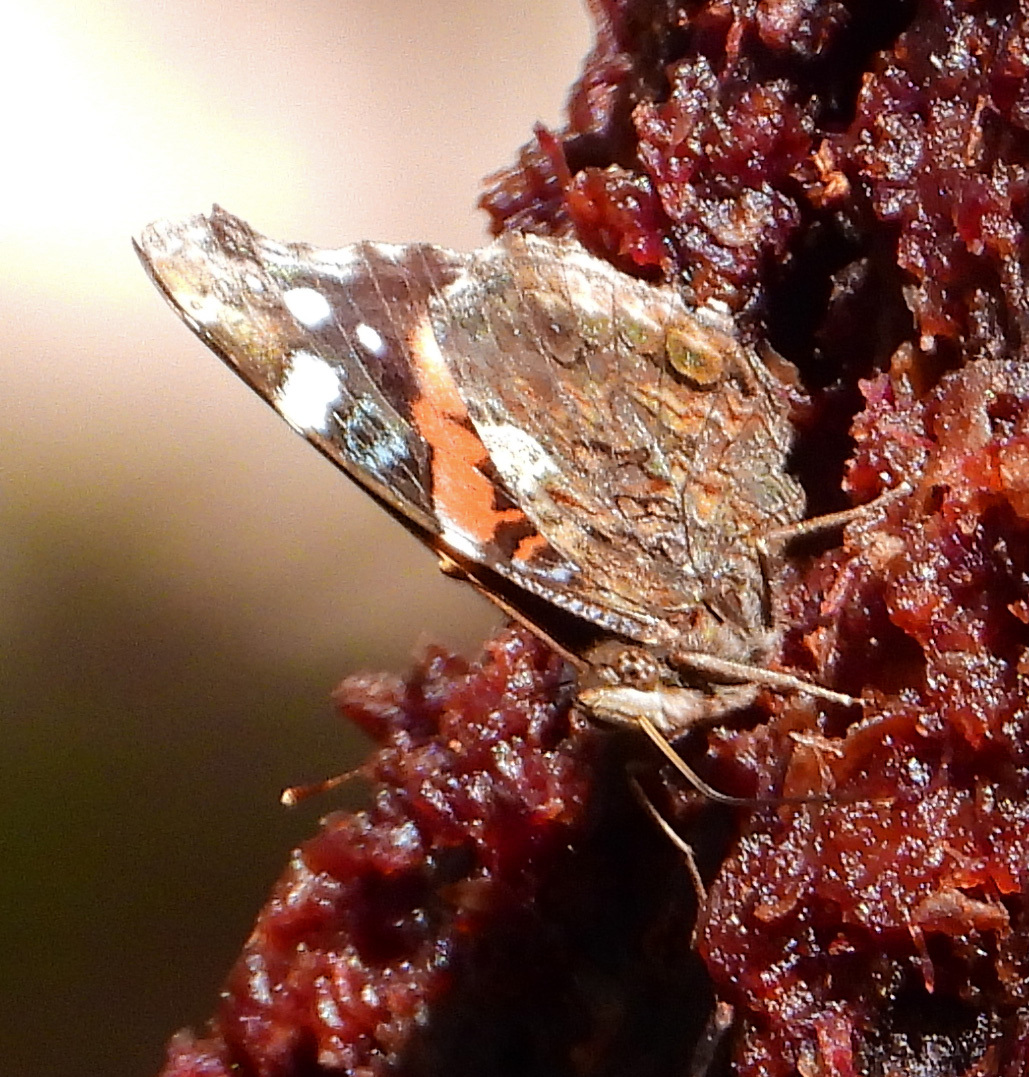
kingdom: Animalia
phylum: Arthropoda
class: Insecta
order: Lepidoptera
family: Nymphalidae
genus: Vanessa
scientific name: Vanessa atalanta
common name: Red admiral
